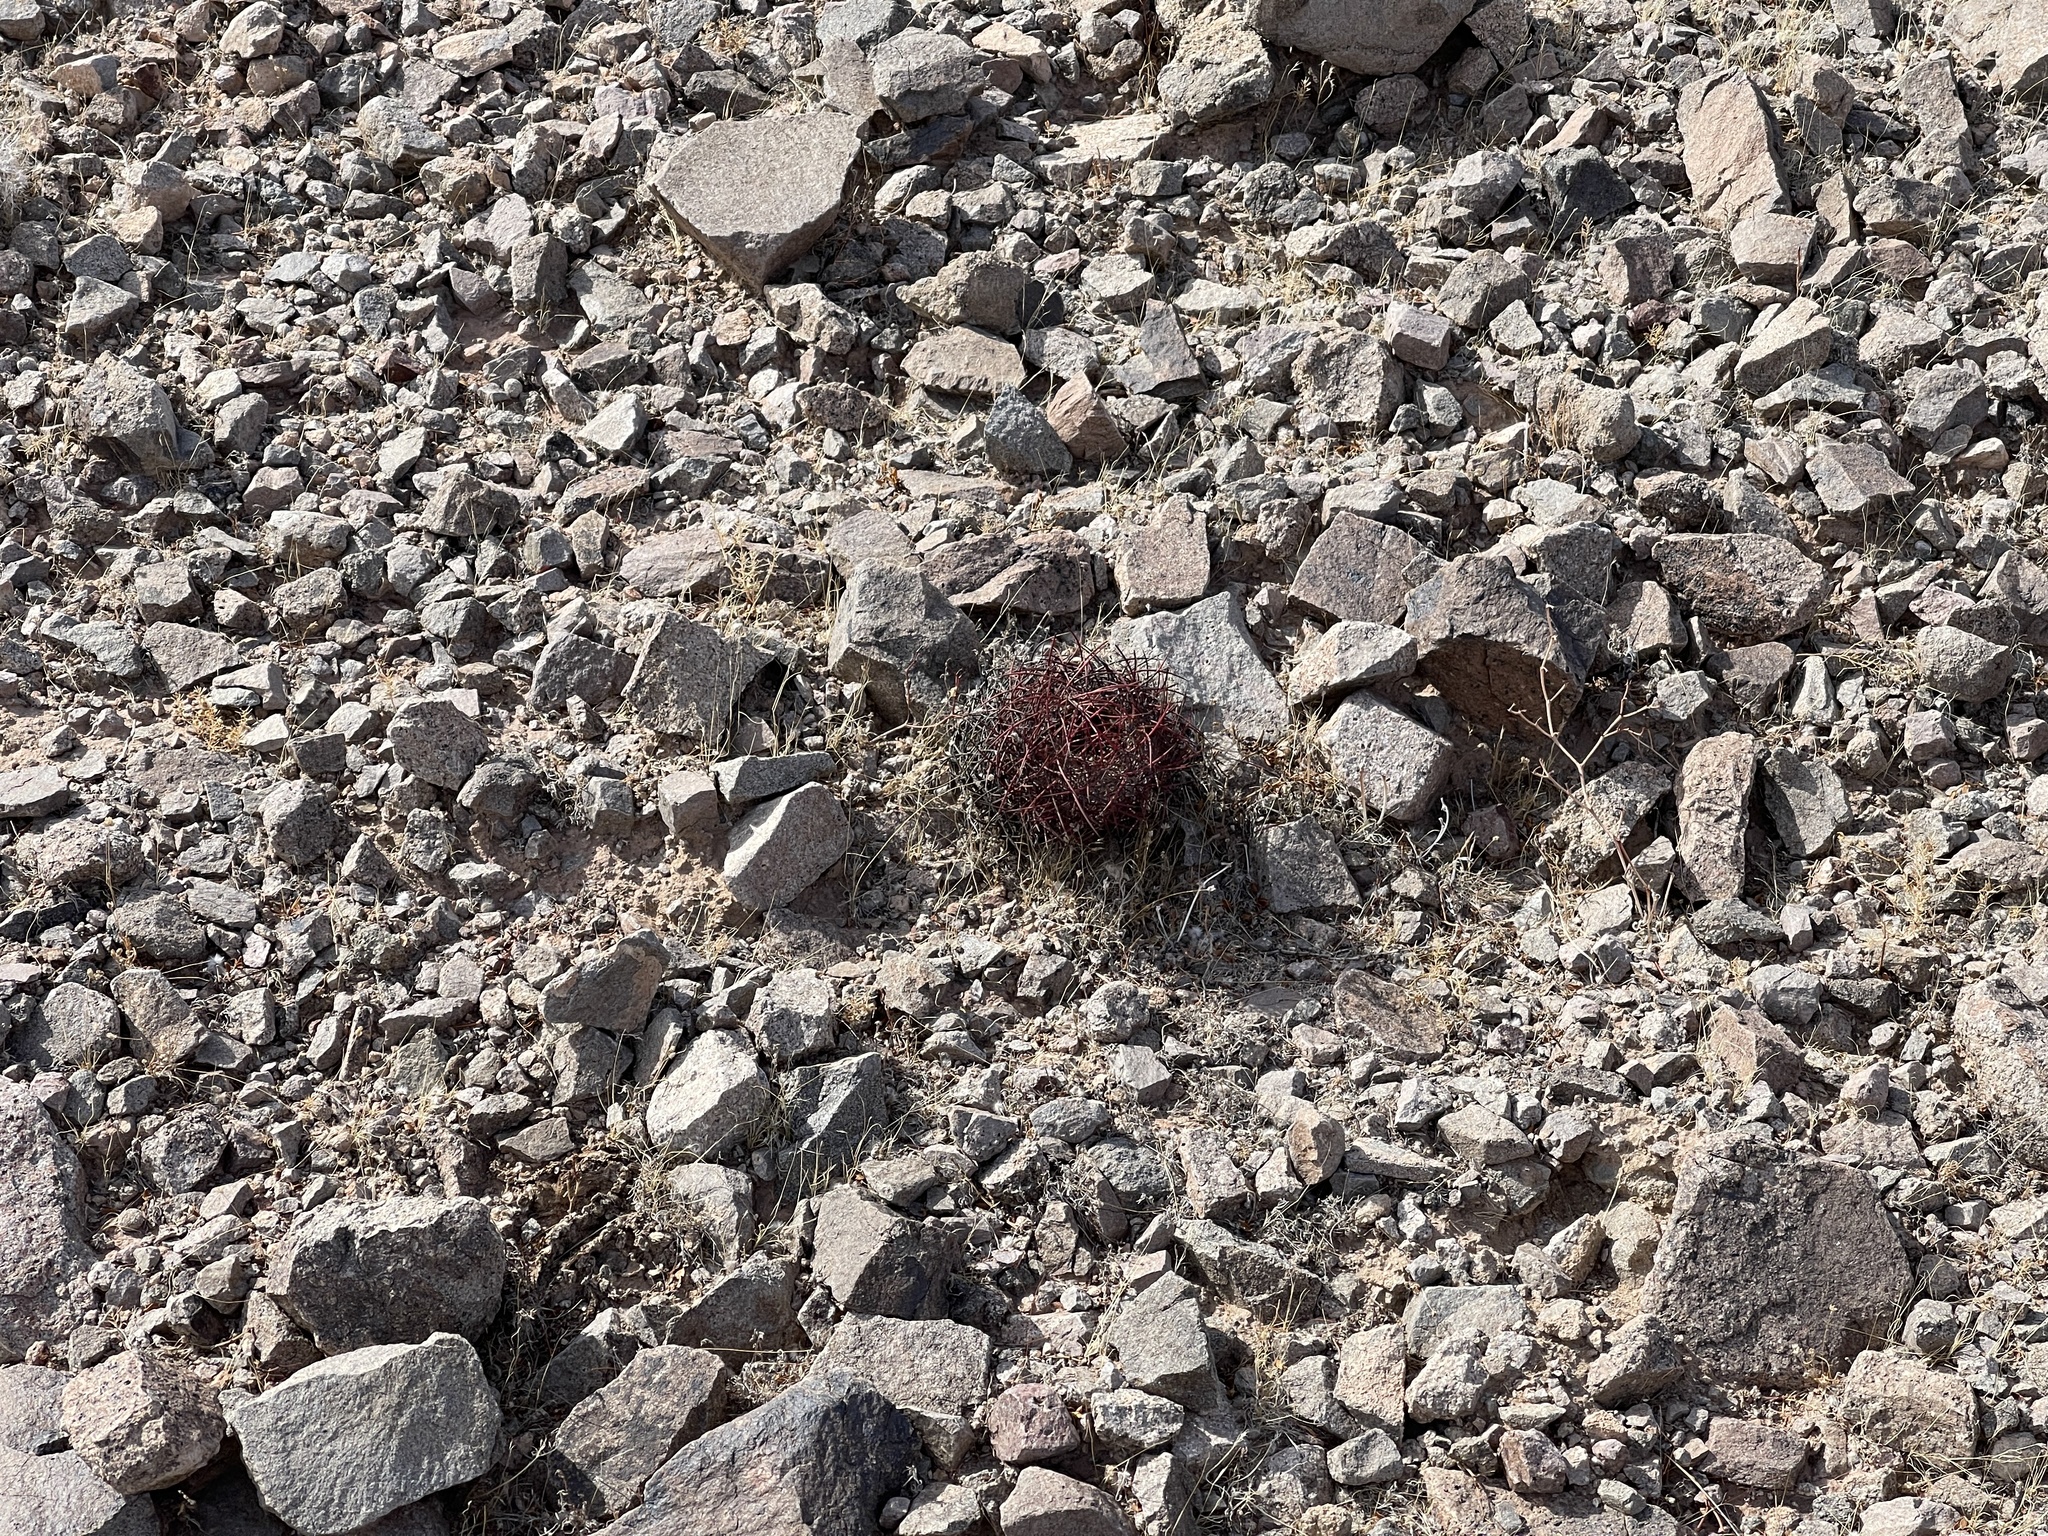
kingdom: Plantae
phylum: Tracheophyta
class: Magnoliopsida
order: Caryophyllales
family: Cactaceae
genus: Sclerocactus
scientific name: Sclerocactus johnsonii
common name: Eight-spine fishhook cactus
